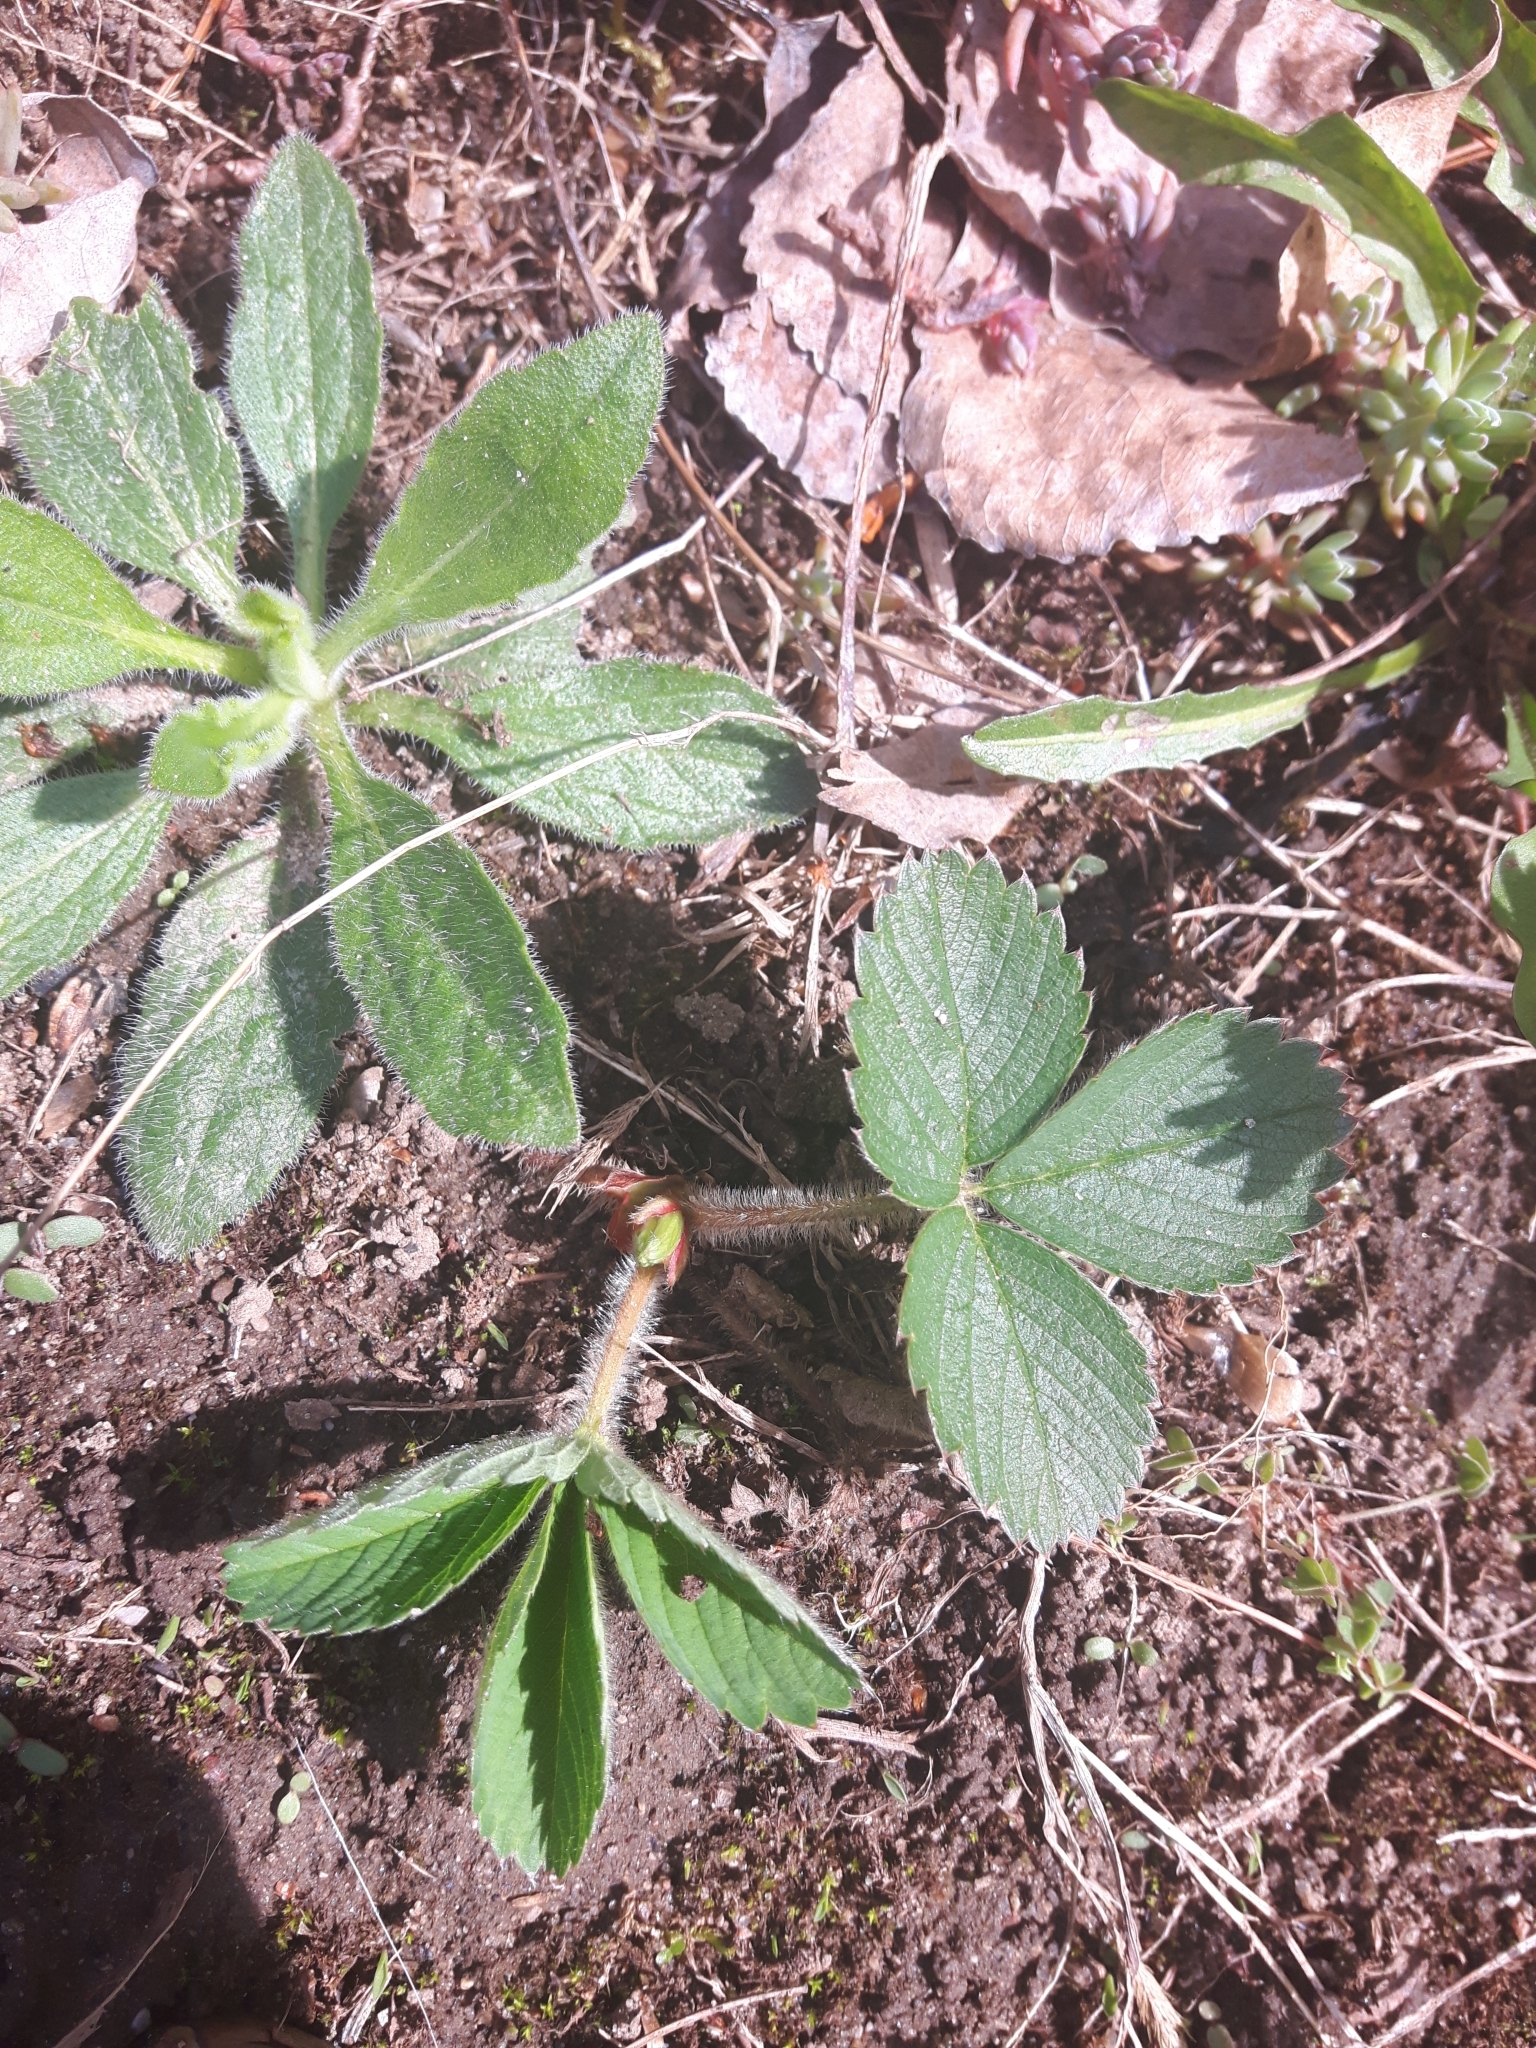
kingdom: Plantae
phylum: Tracheophyta
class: Magnoliopsida
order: Rosales
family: Rosaceae
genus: Fragaria
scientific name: Fragaria virginiana
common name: Thickleaved wild strawberry
